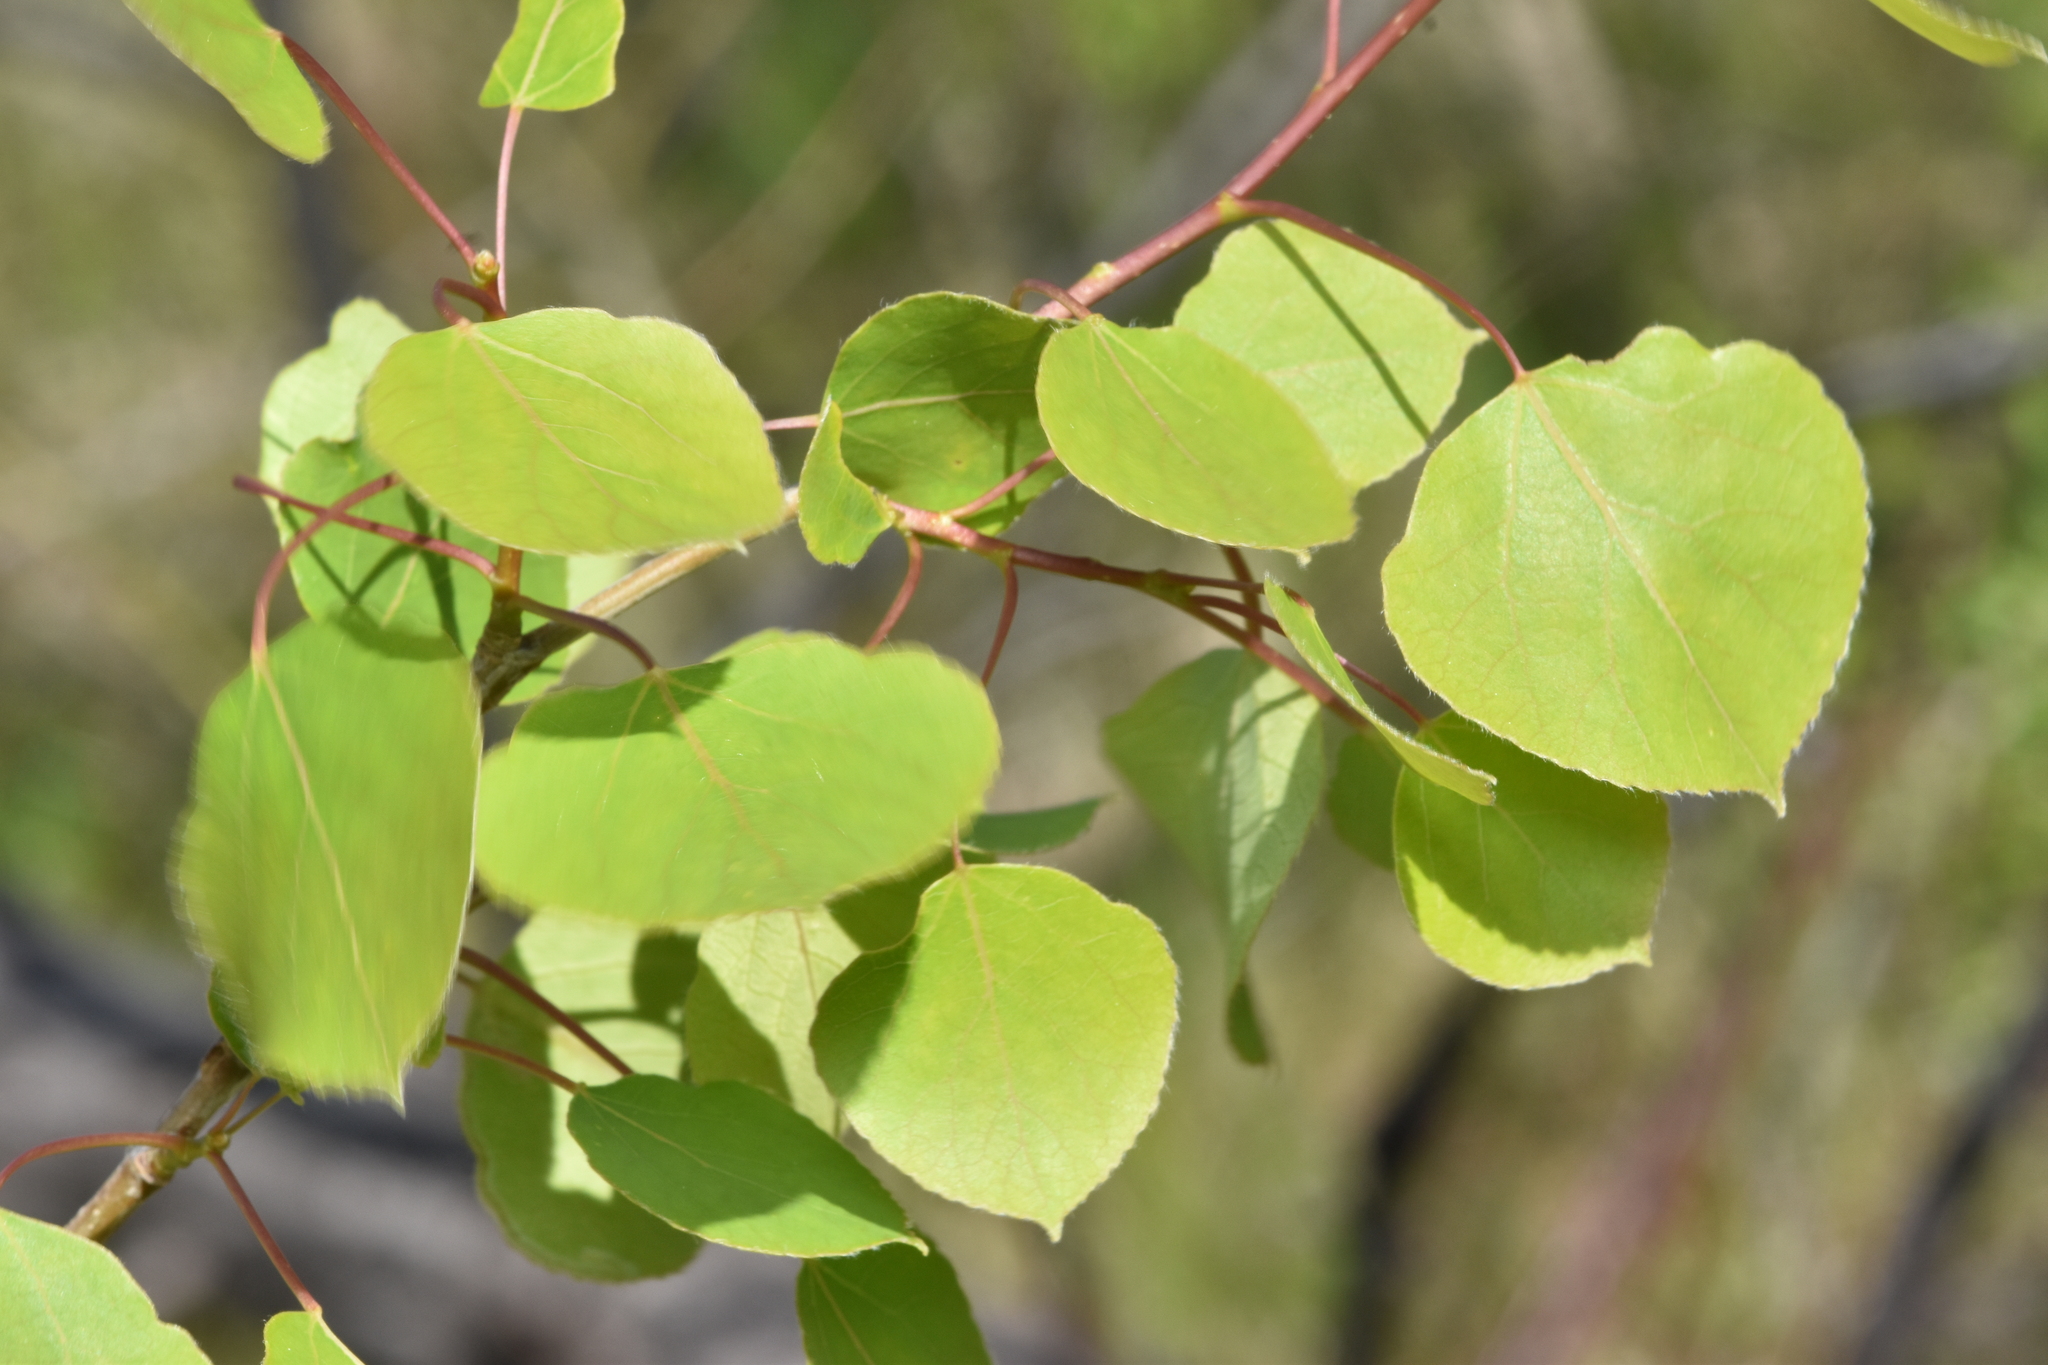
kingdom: Plantae
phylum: Tracheophyta
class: Magnoliopsida
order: Malpighiales
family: Salicaceae
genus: Populus
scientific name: Populus tremuloides
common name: Quaking aspen
